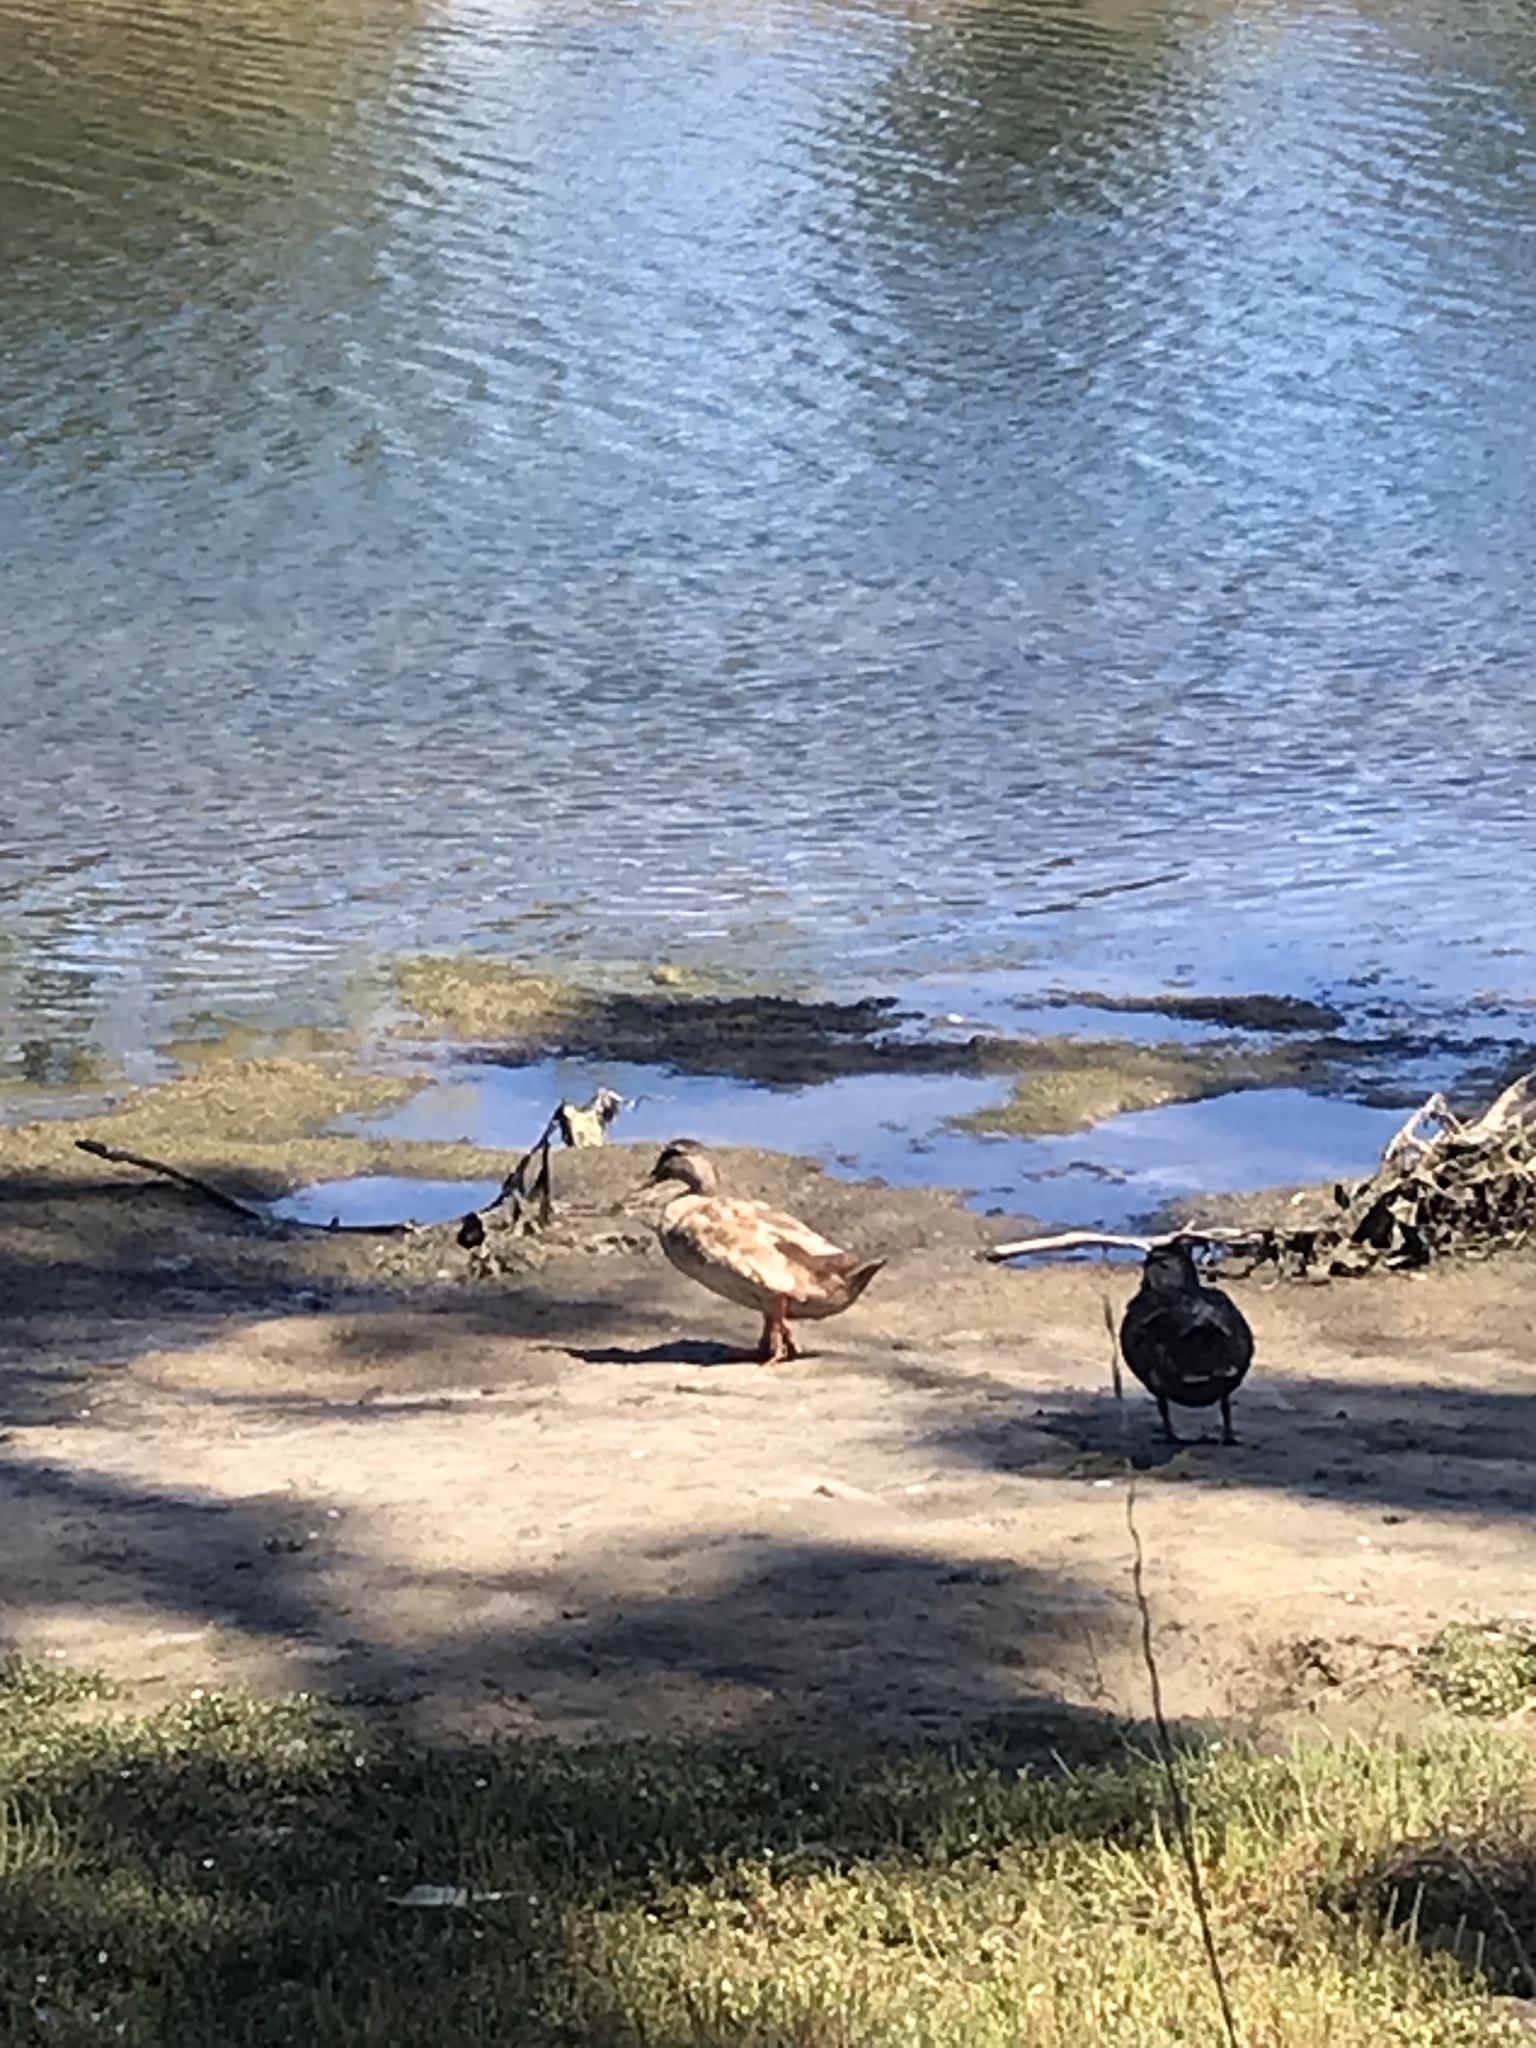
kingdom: Animalia
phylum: Chordata
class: Aves
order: Anseriformes
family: Anatidae
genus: Anas
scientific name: Anas platyrhynchos
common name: Mallard
